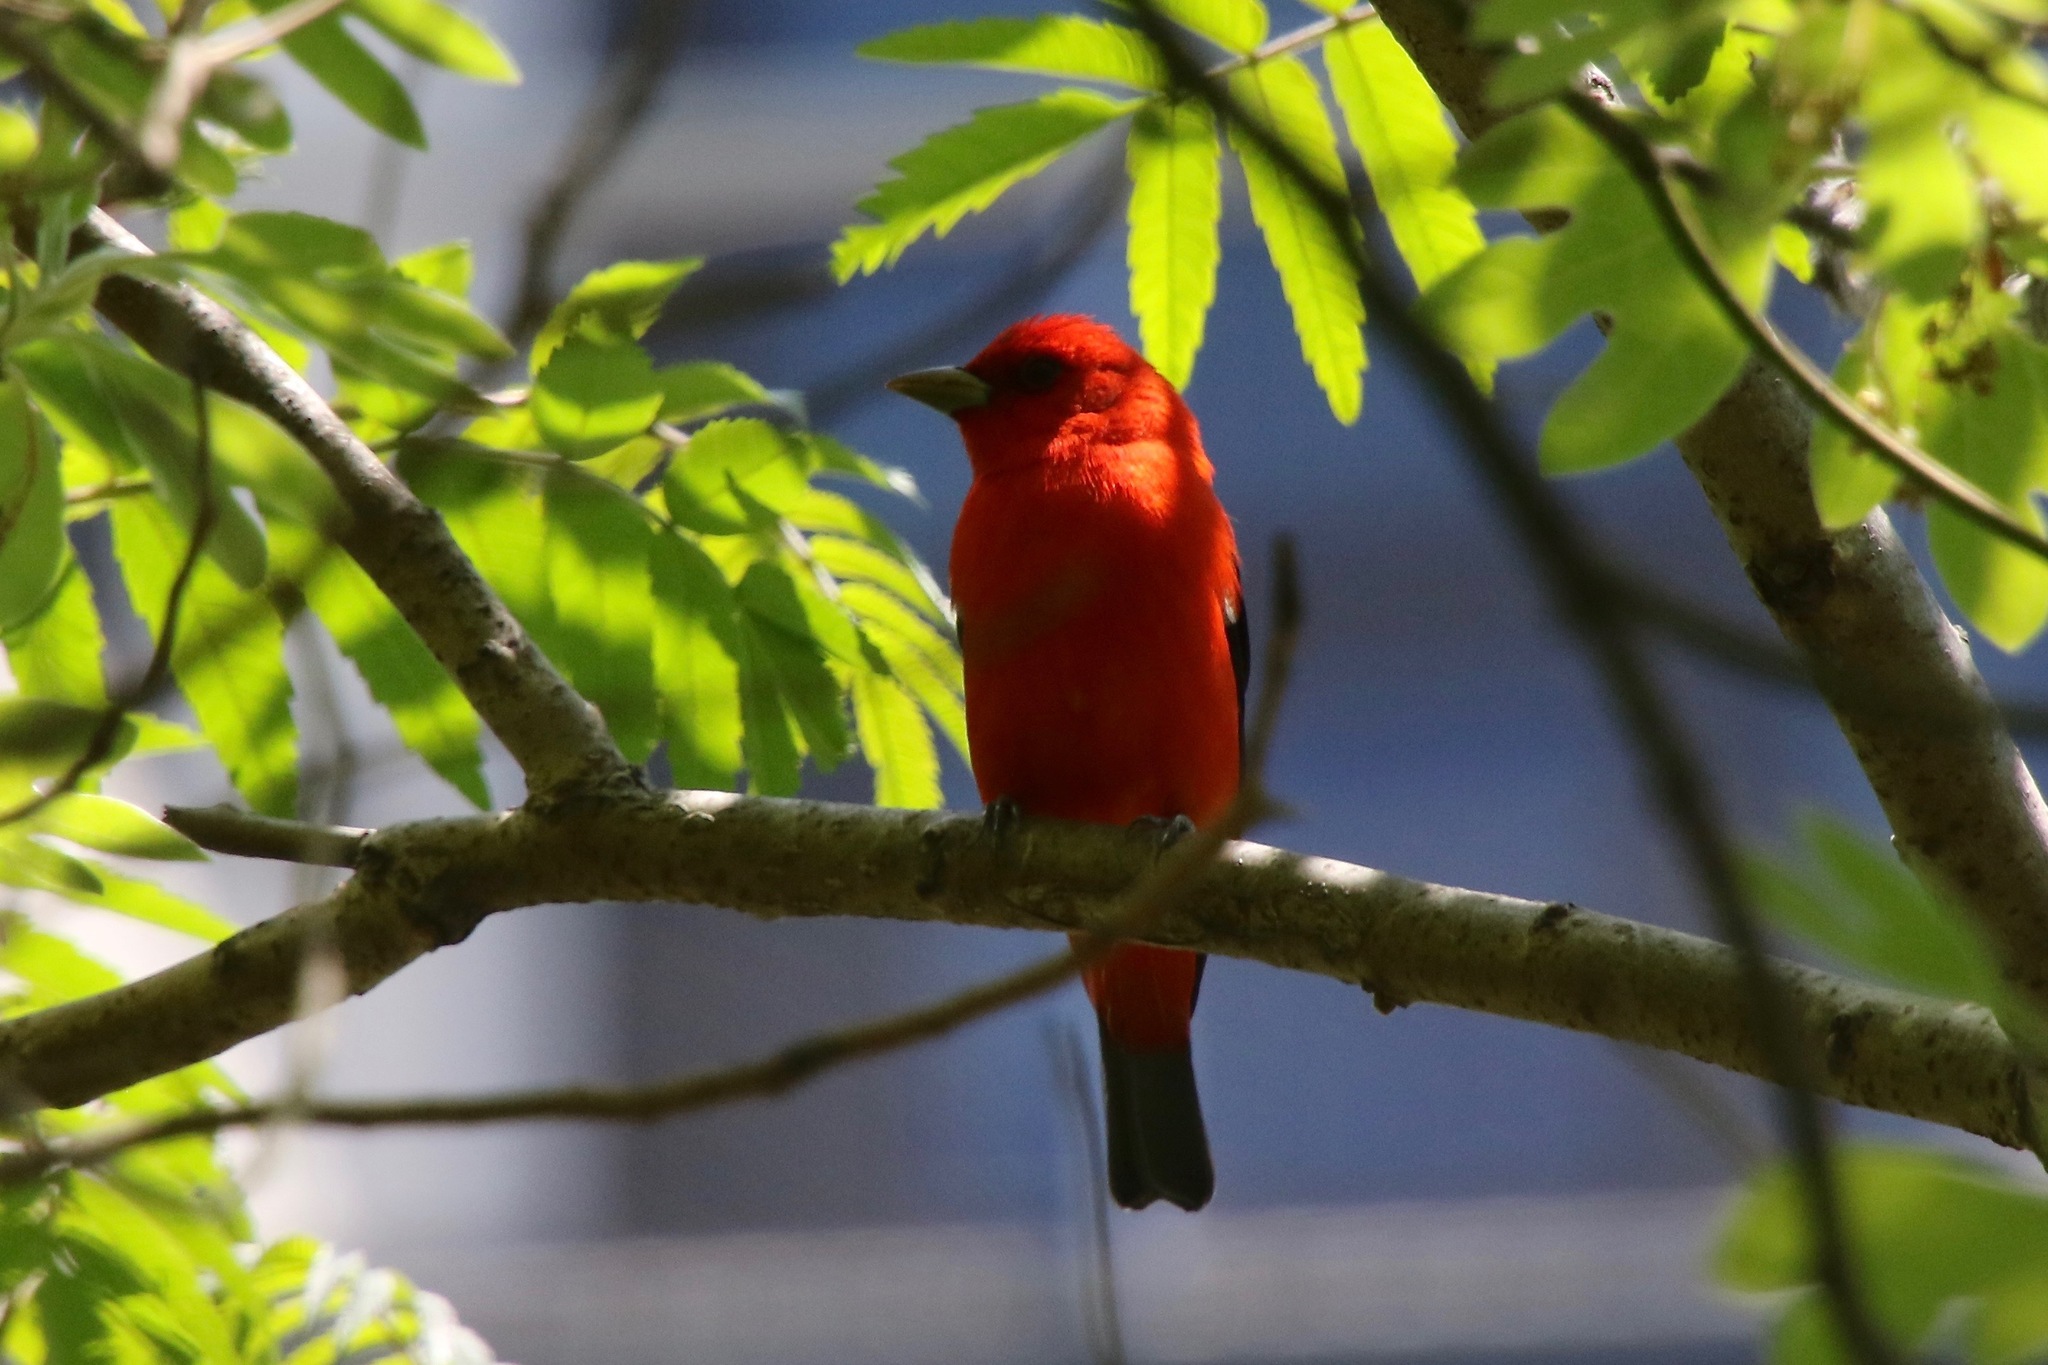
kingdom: Animalia
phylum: Chordata
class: Aves
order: Passeriformes
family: Cardinalidae
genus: Piranga
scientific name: Piranga olivacea
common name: Scarlet tanager
